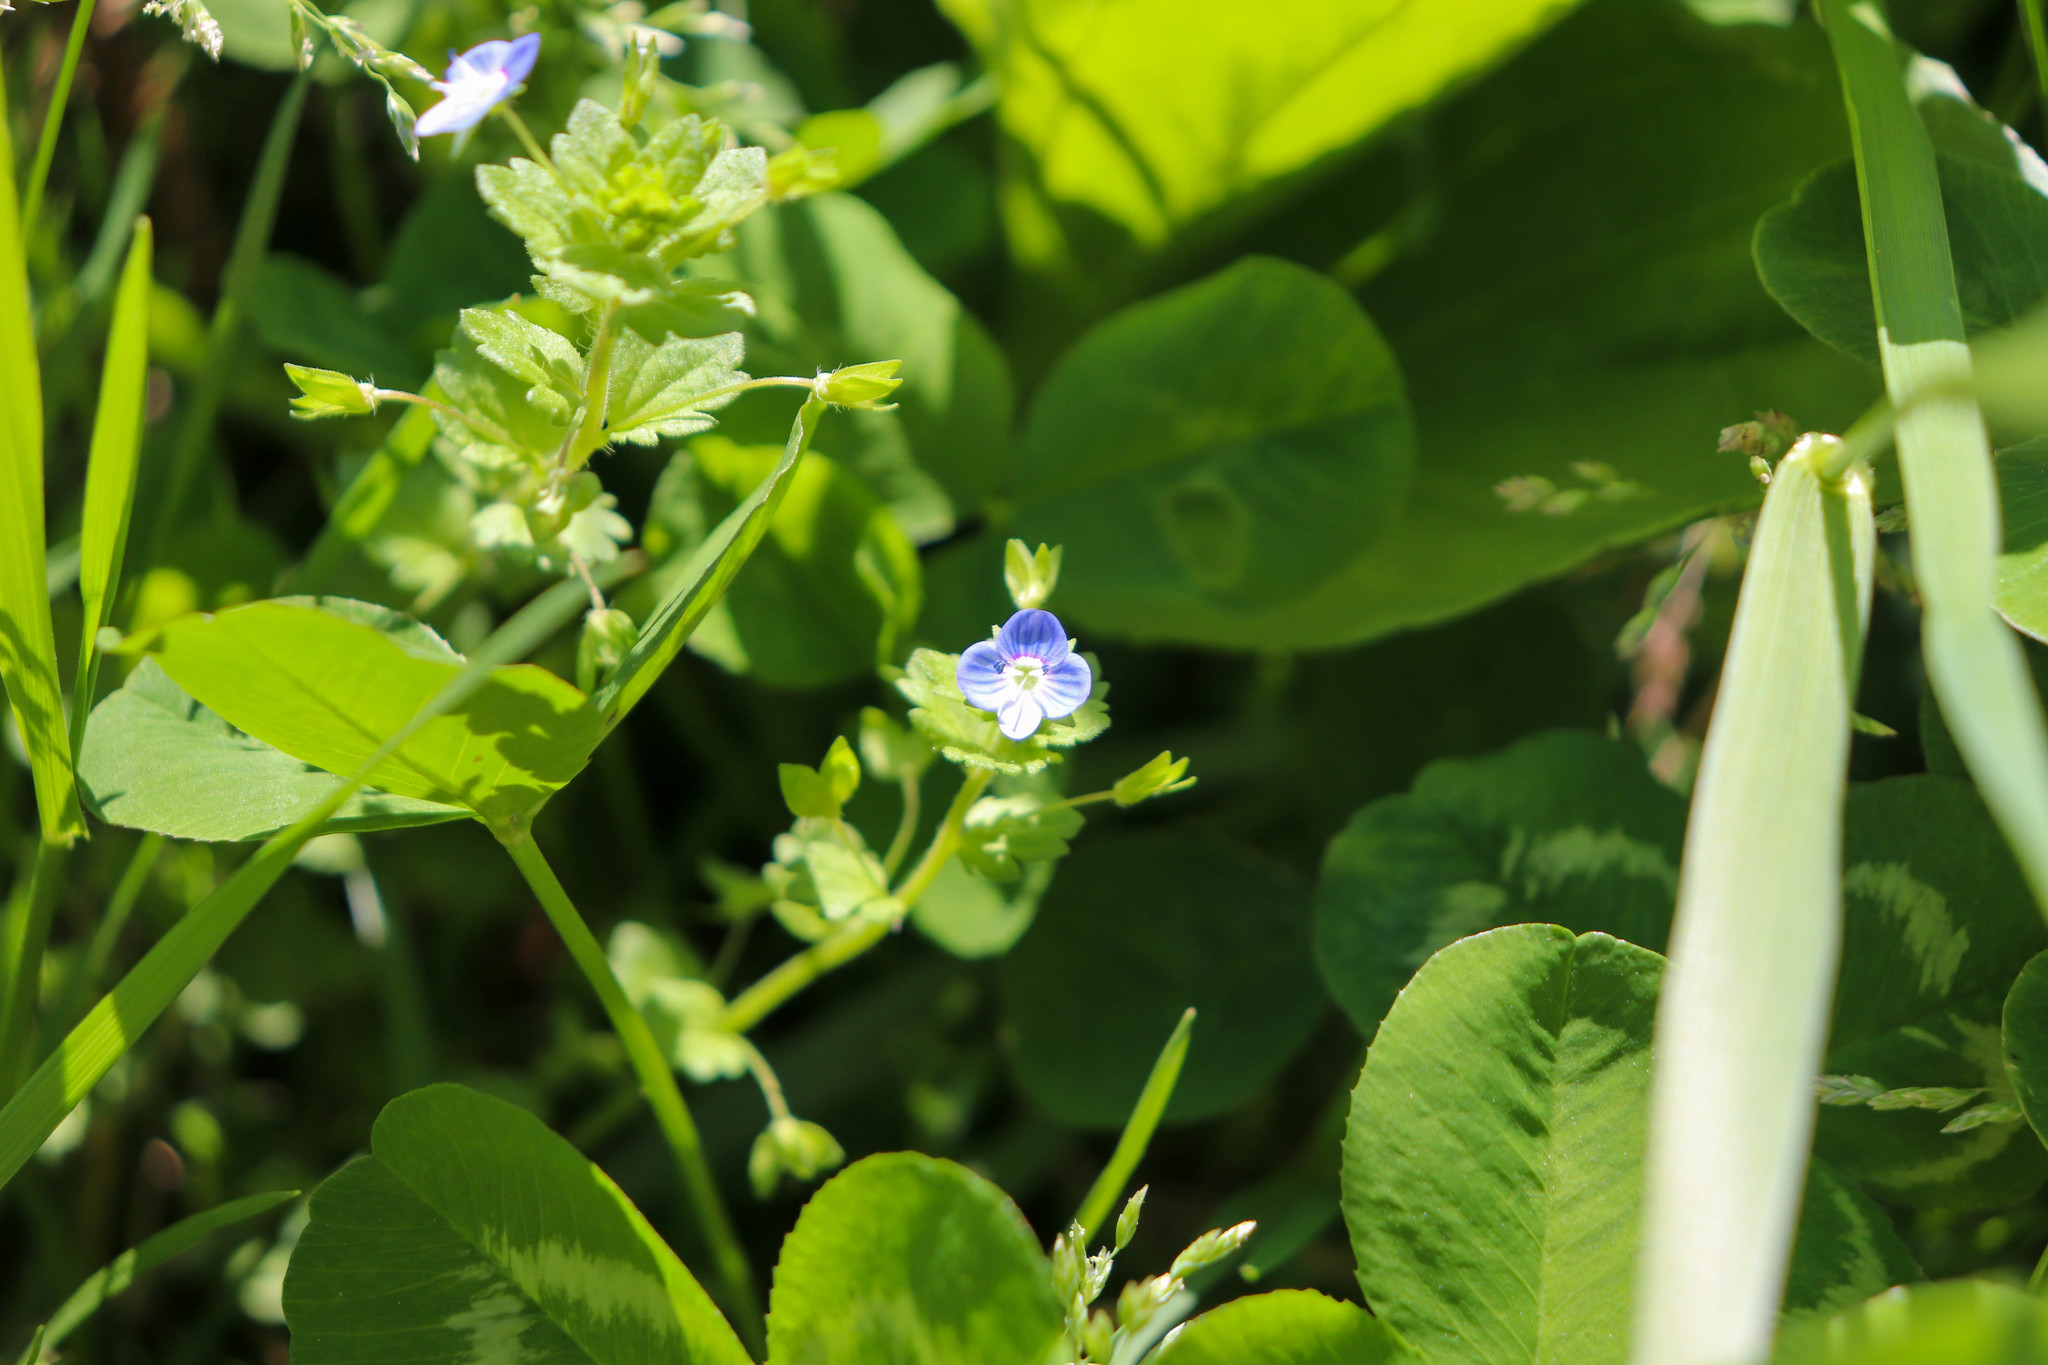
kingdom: Plantae
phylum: Tracheophyta
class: Magnoliopsida
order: Lamiales
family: Plantaginaceae
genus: Veronica
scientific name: Veronica persica
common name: Common field-speedwell
